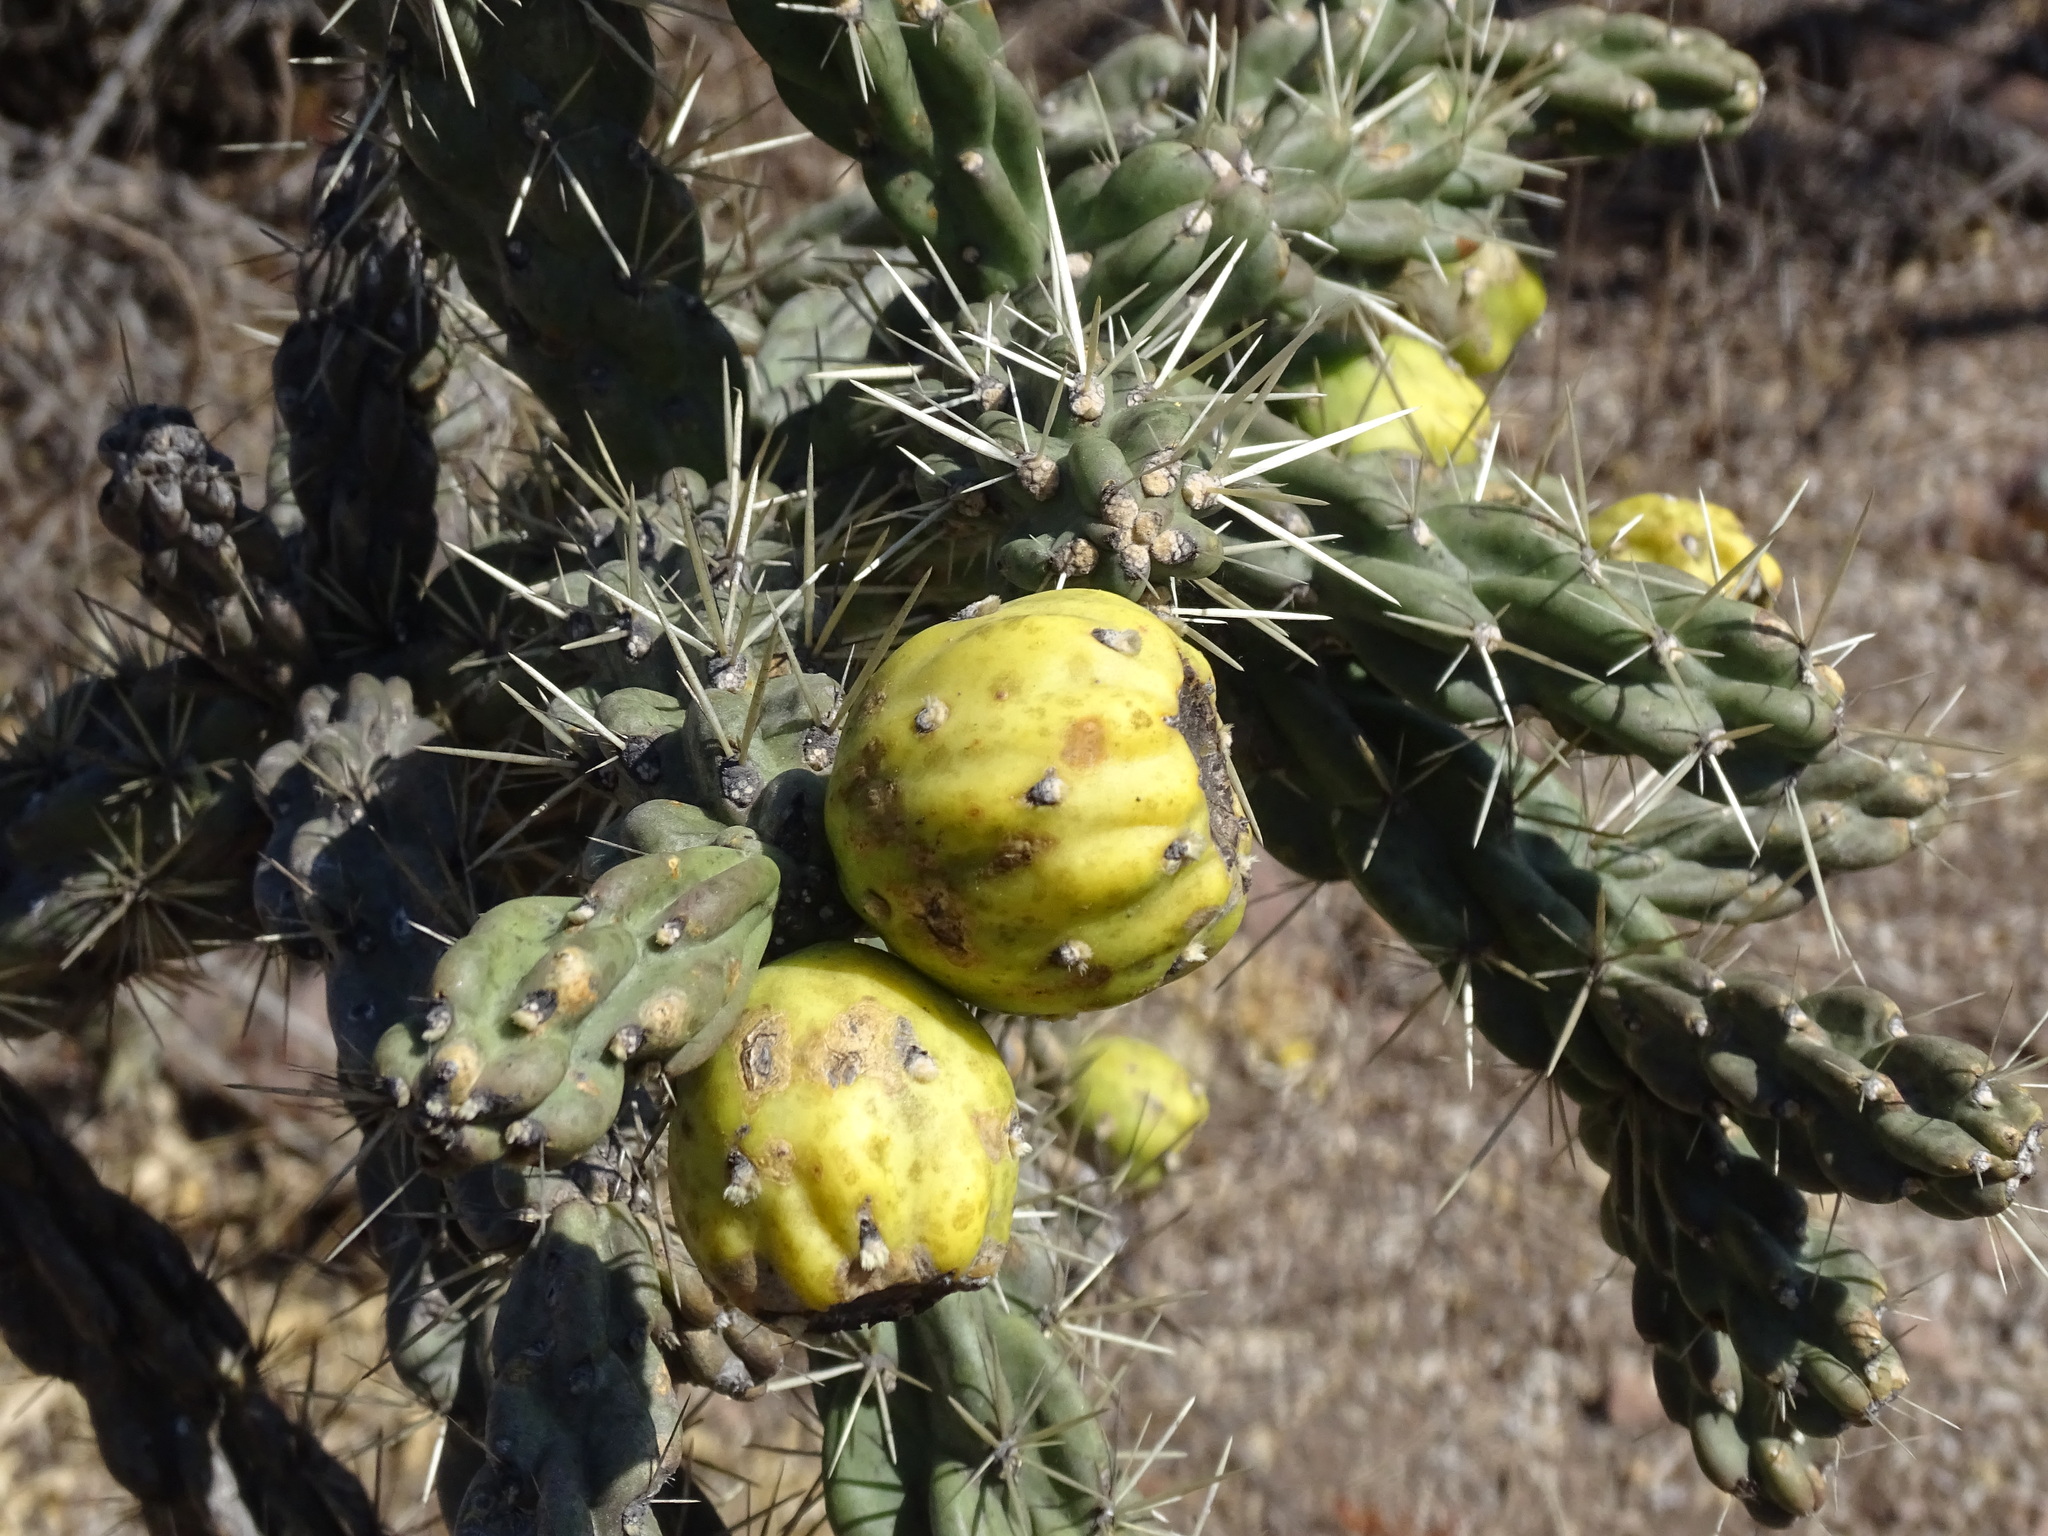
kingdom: Plantae
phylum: Tracheophyta
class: Magnoliopsida
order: Caryophyllales
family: Cactaceae
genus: Cylindropuntia
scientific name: Cylindropuntia imbricata
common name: Candelabrum cactus
